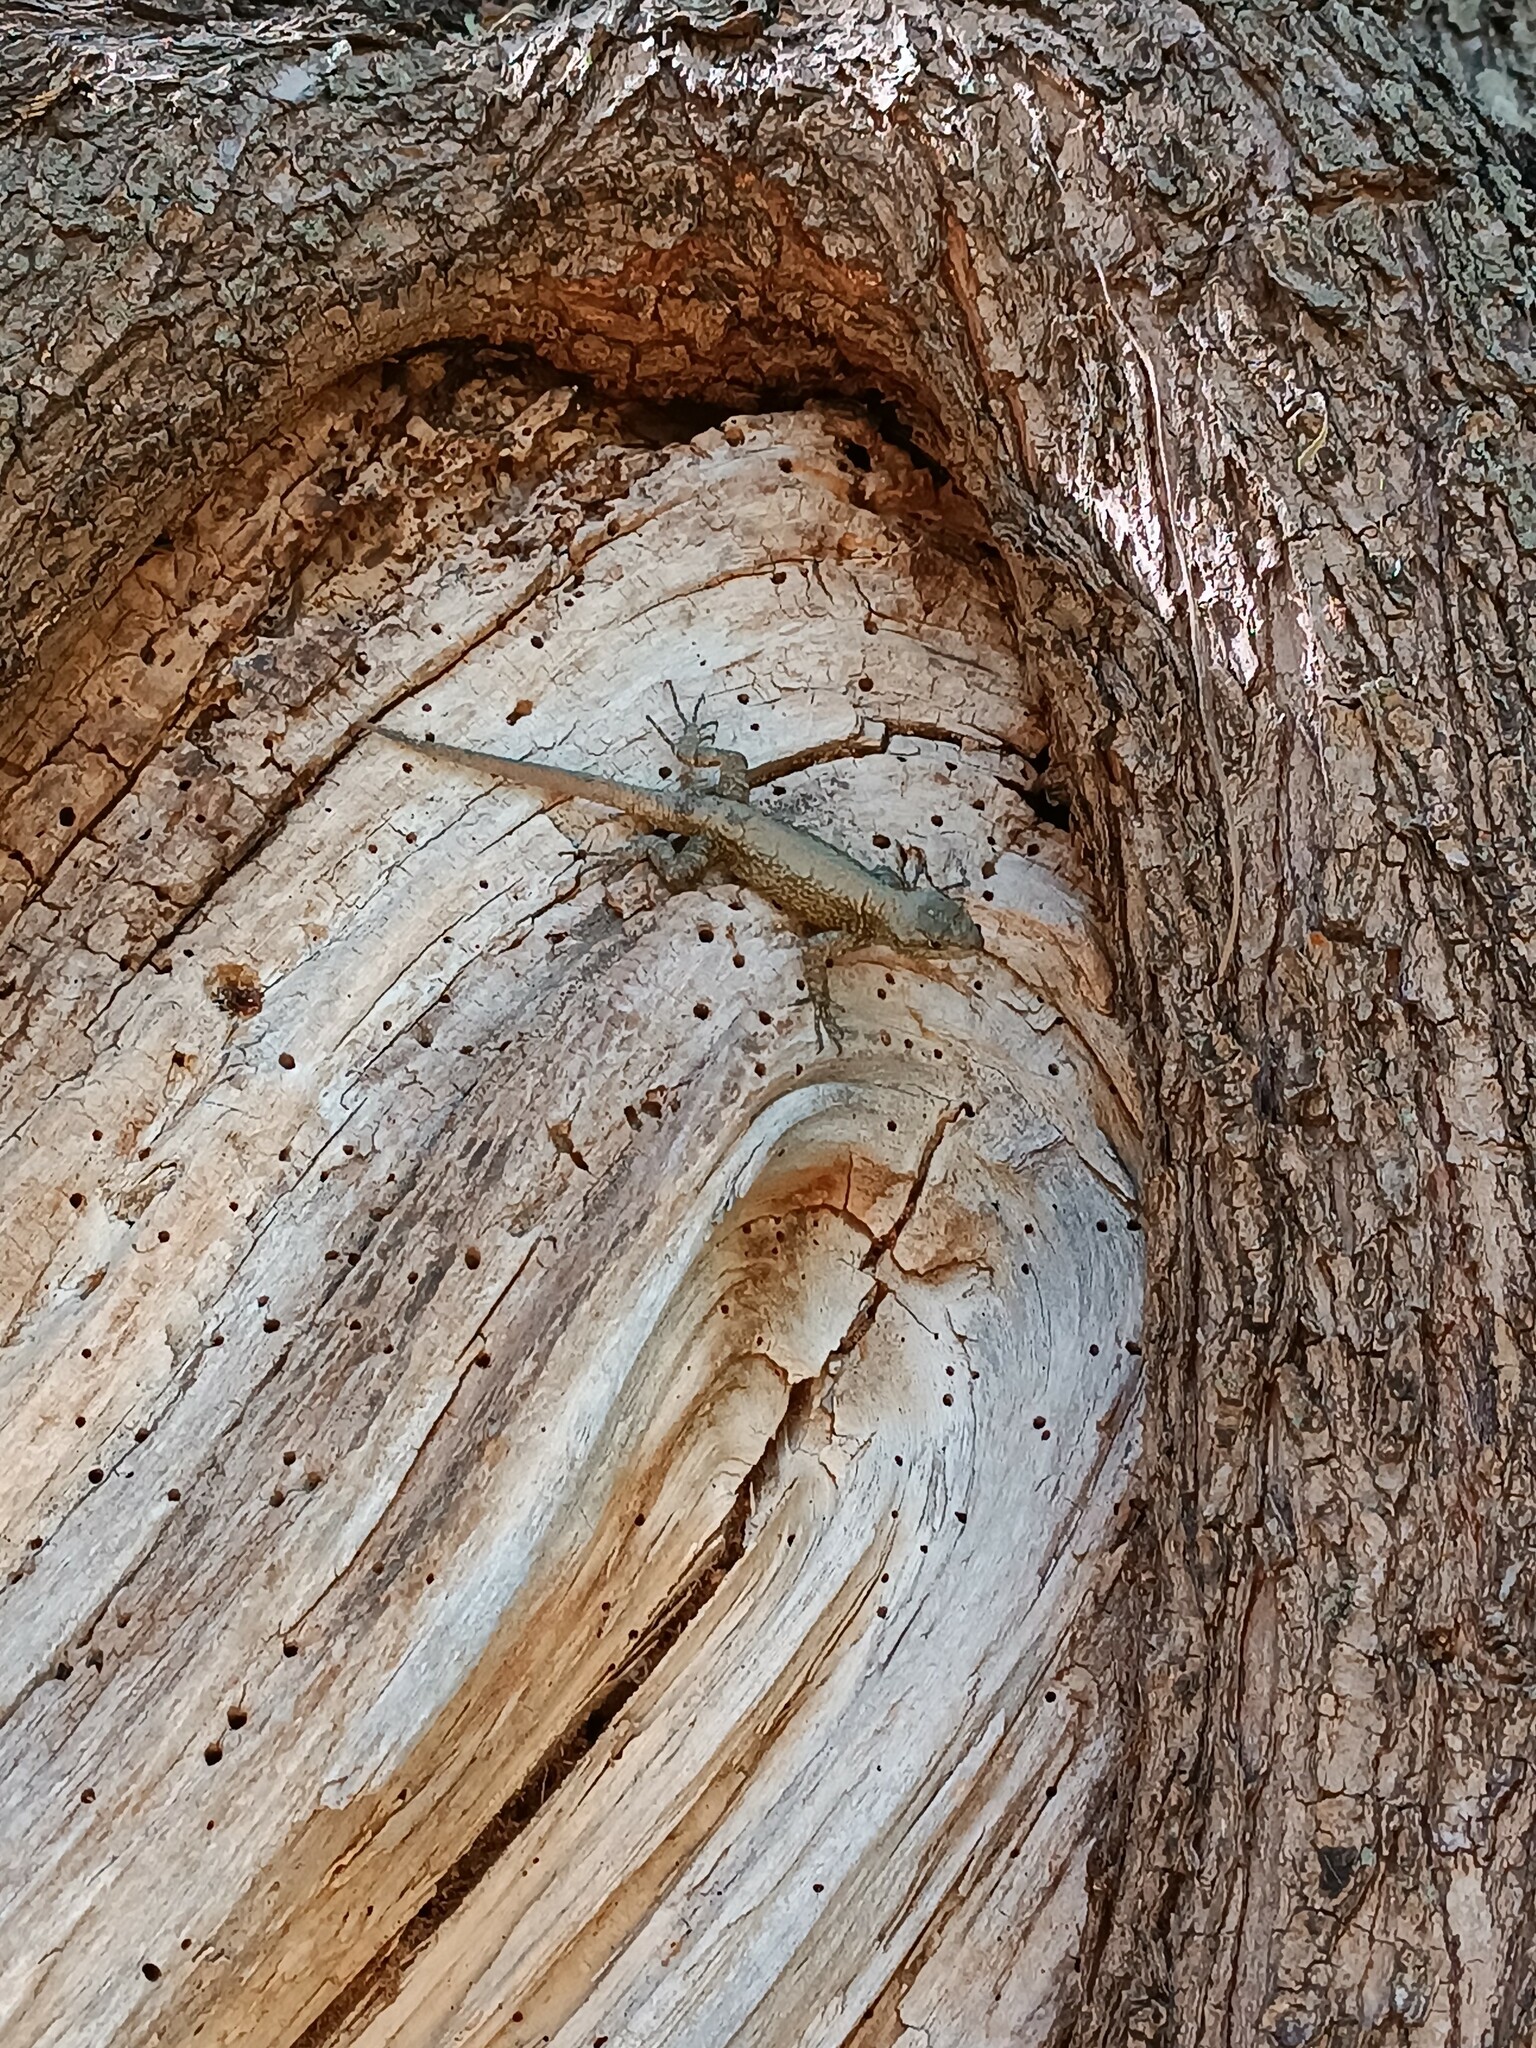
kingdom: Animalia
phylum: Chordata
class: Squamata
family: Phrynosomatidae
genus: Sceloporus
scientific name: Sceloporus grammicus
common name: Mesquite lizard
